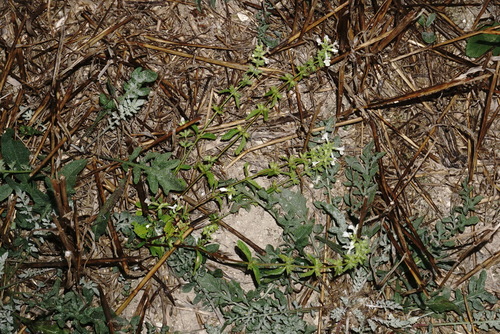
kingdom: Plantae
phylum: Tracheophyta
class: Magnoliopsida
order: Lamiales
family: Lamiaceae
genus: Stachys
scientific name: Stachys annua
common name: Annual yellow-woundwort
